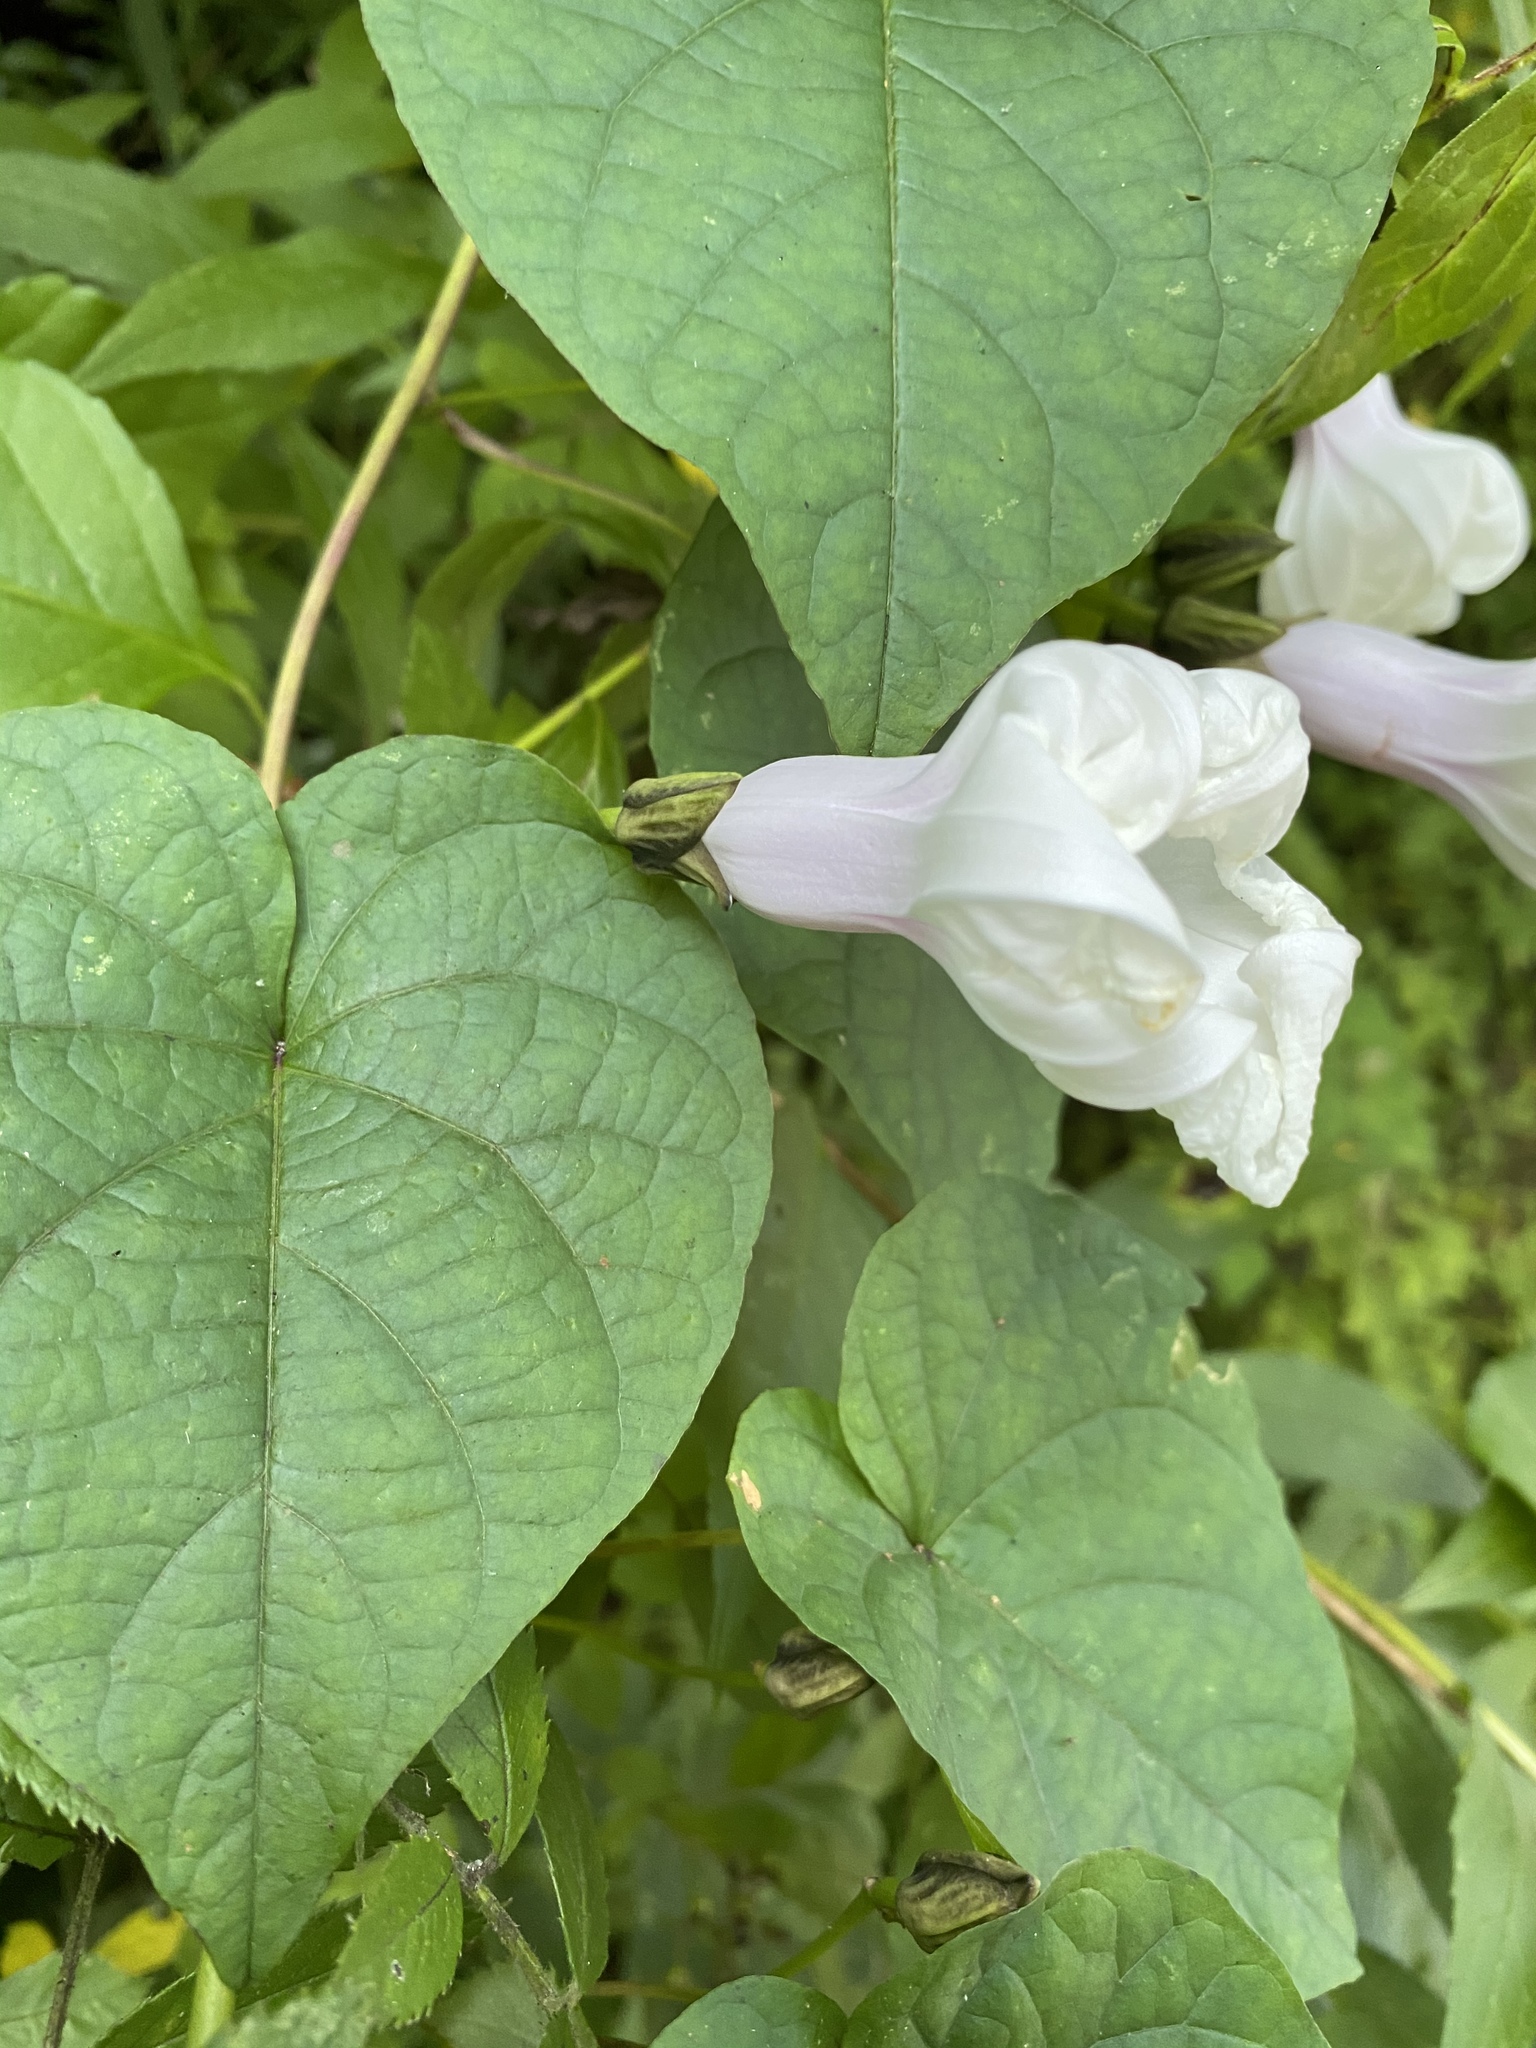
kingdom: Plantae
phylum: Tracheophyta
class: Magnoliopsida
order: Solanales
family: Convolvulaceae
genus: Ipomoea
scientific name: Ipomoea pandurata
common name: Man-of-the-earth
